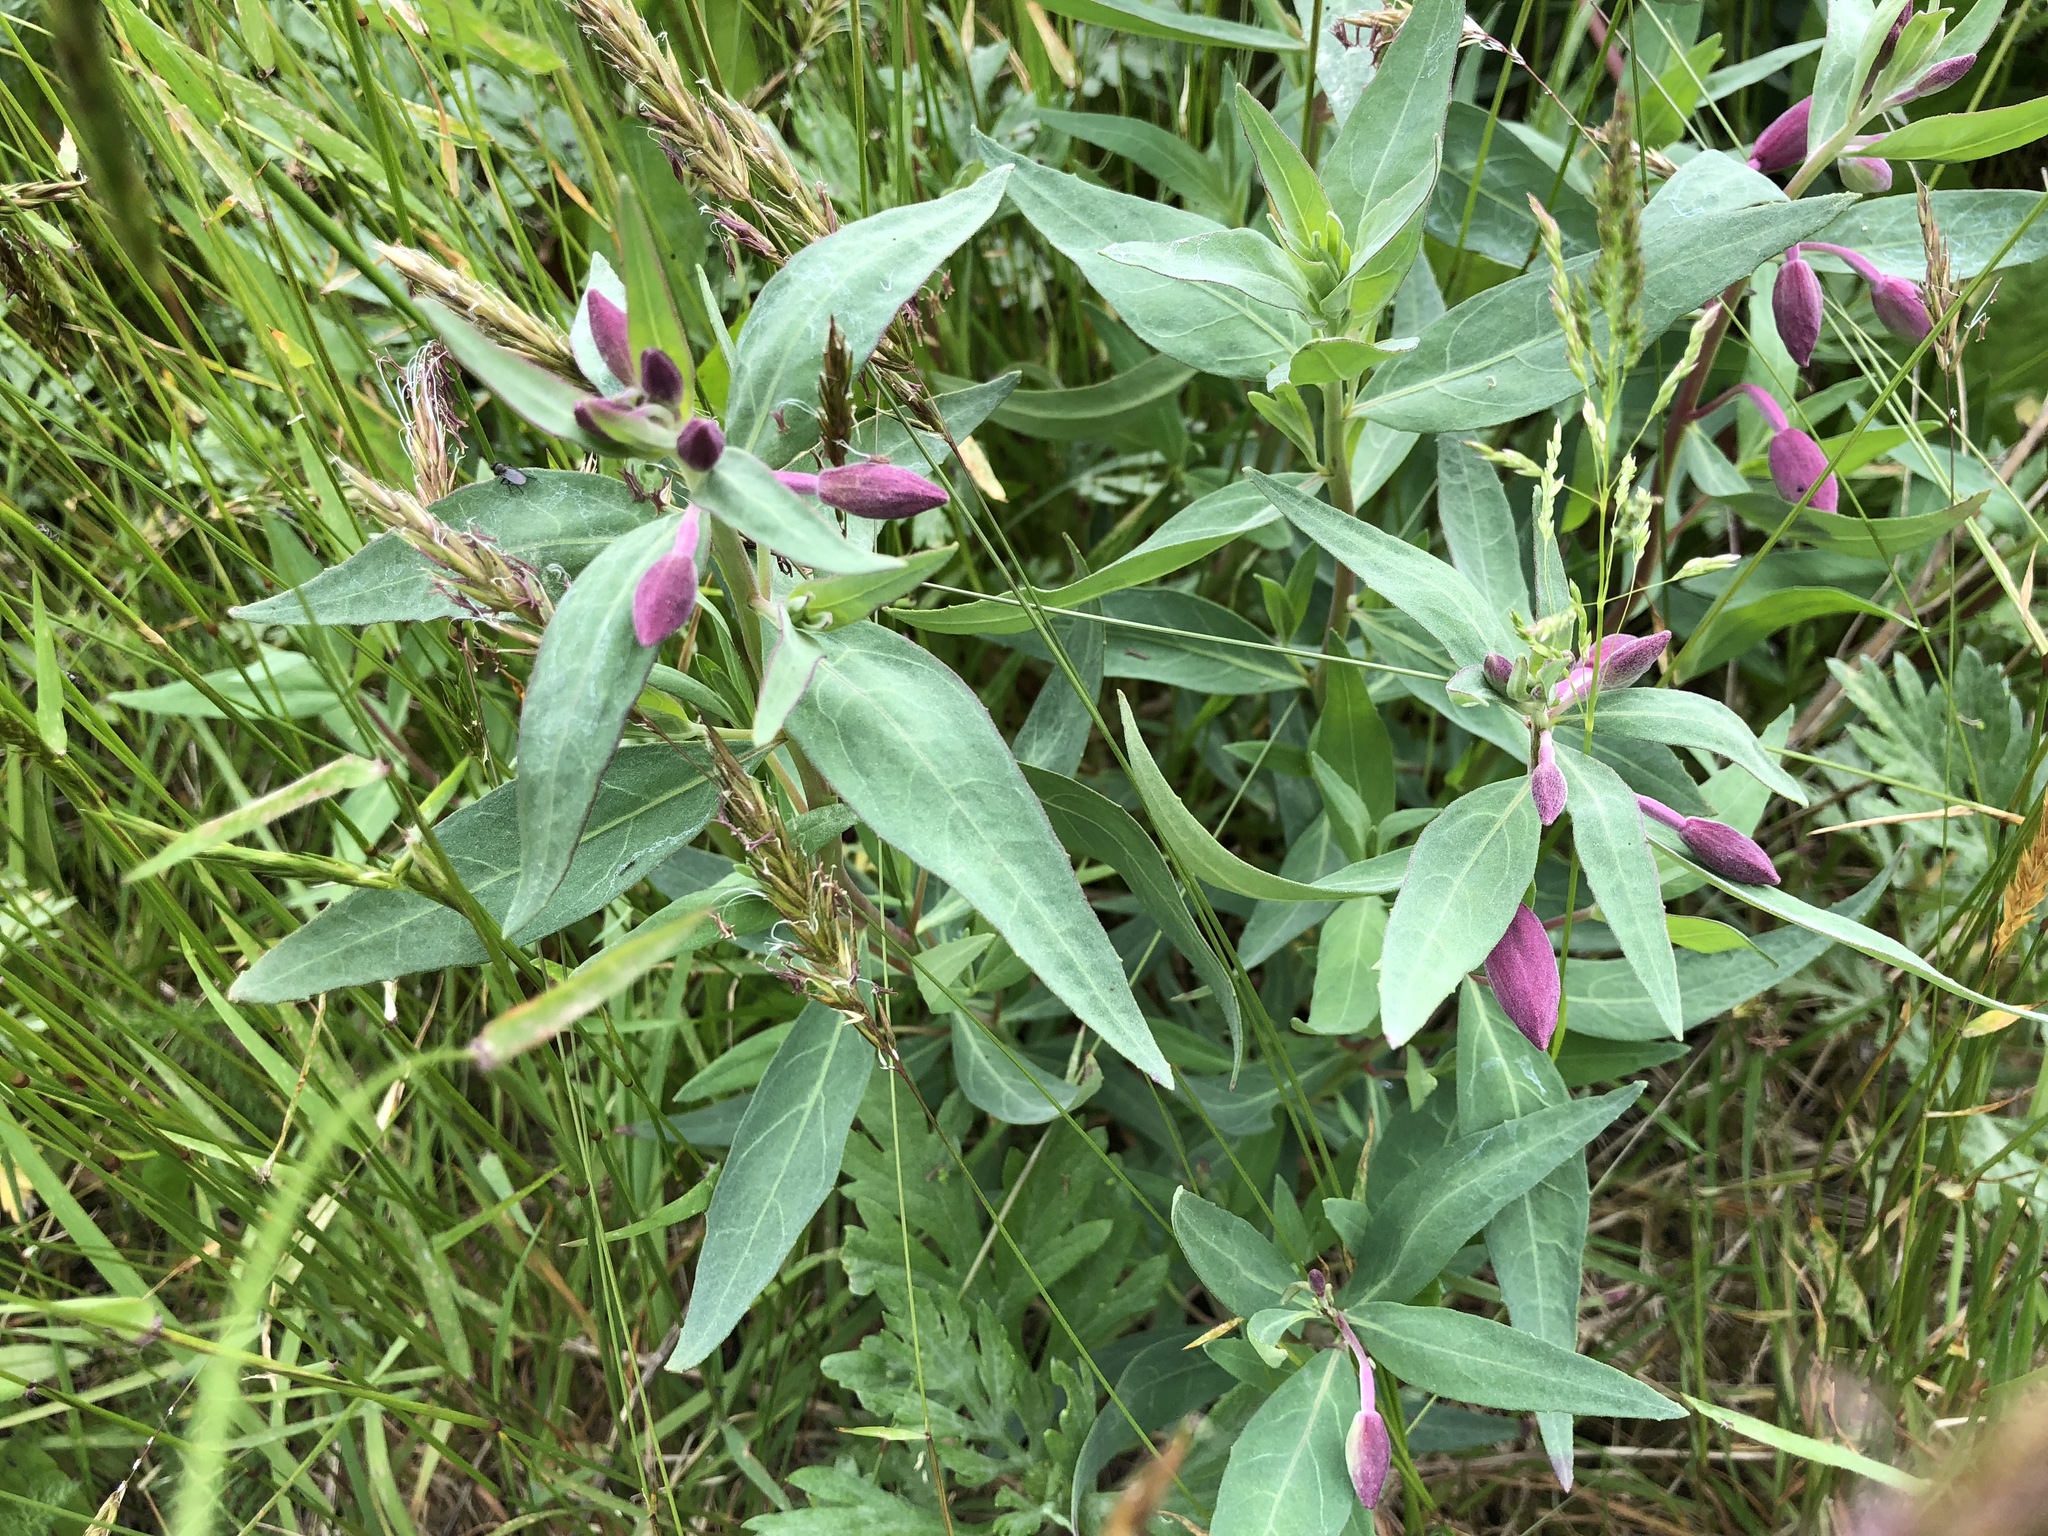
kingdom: Plantae
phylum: Tracheophyta
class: Magnoliopsida
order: Myrtales
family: Onagraceae
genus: Chamaenerion
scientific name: Chamaenerion latifolium
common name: Dwarf fireweed
